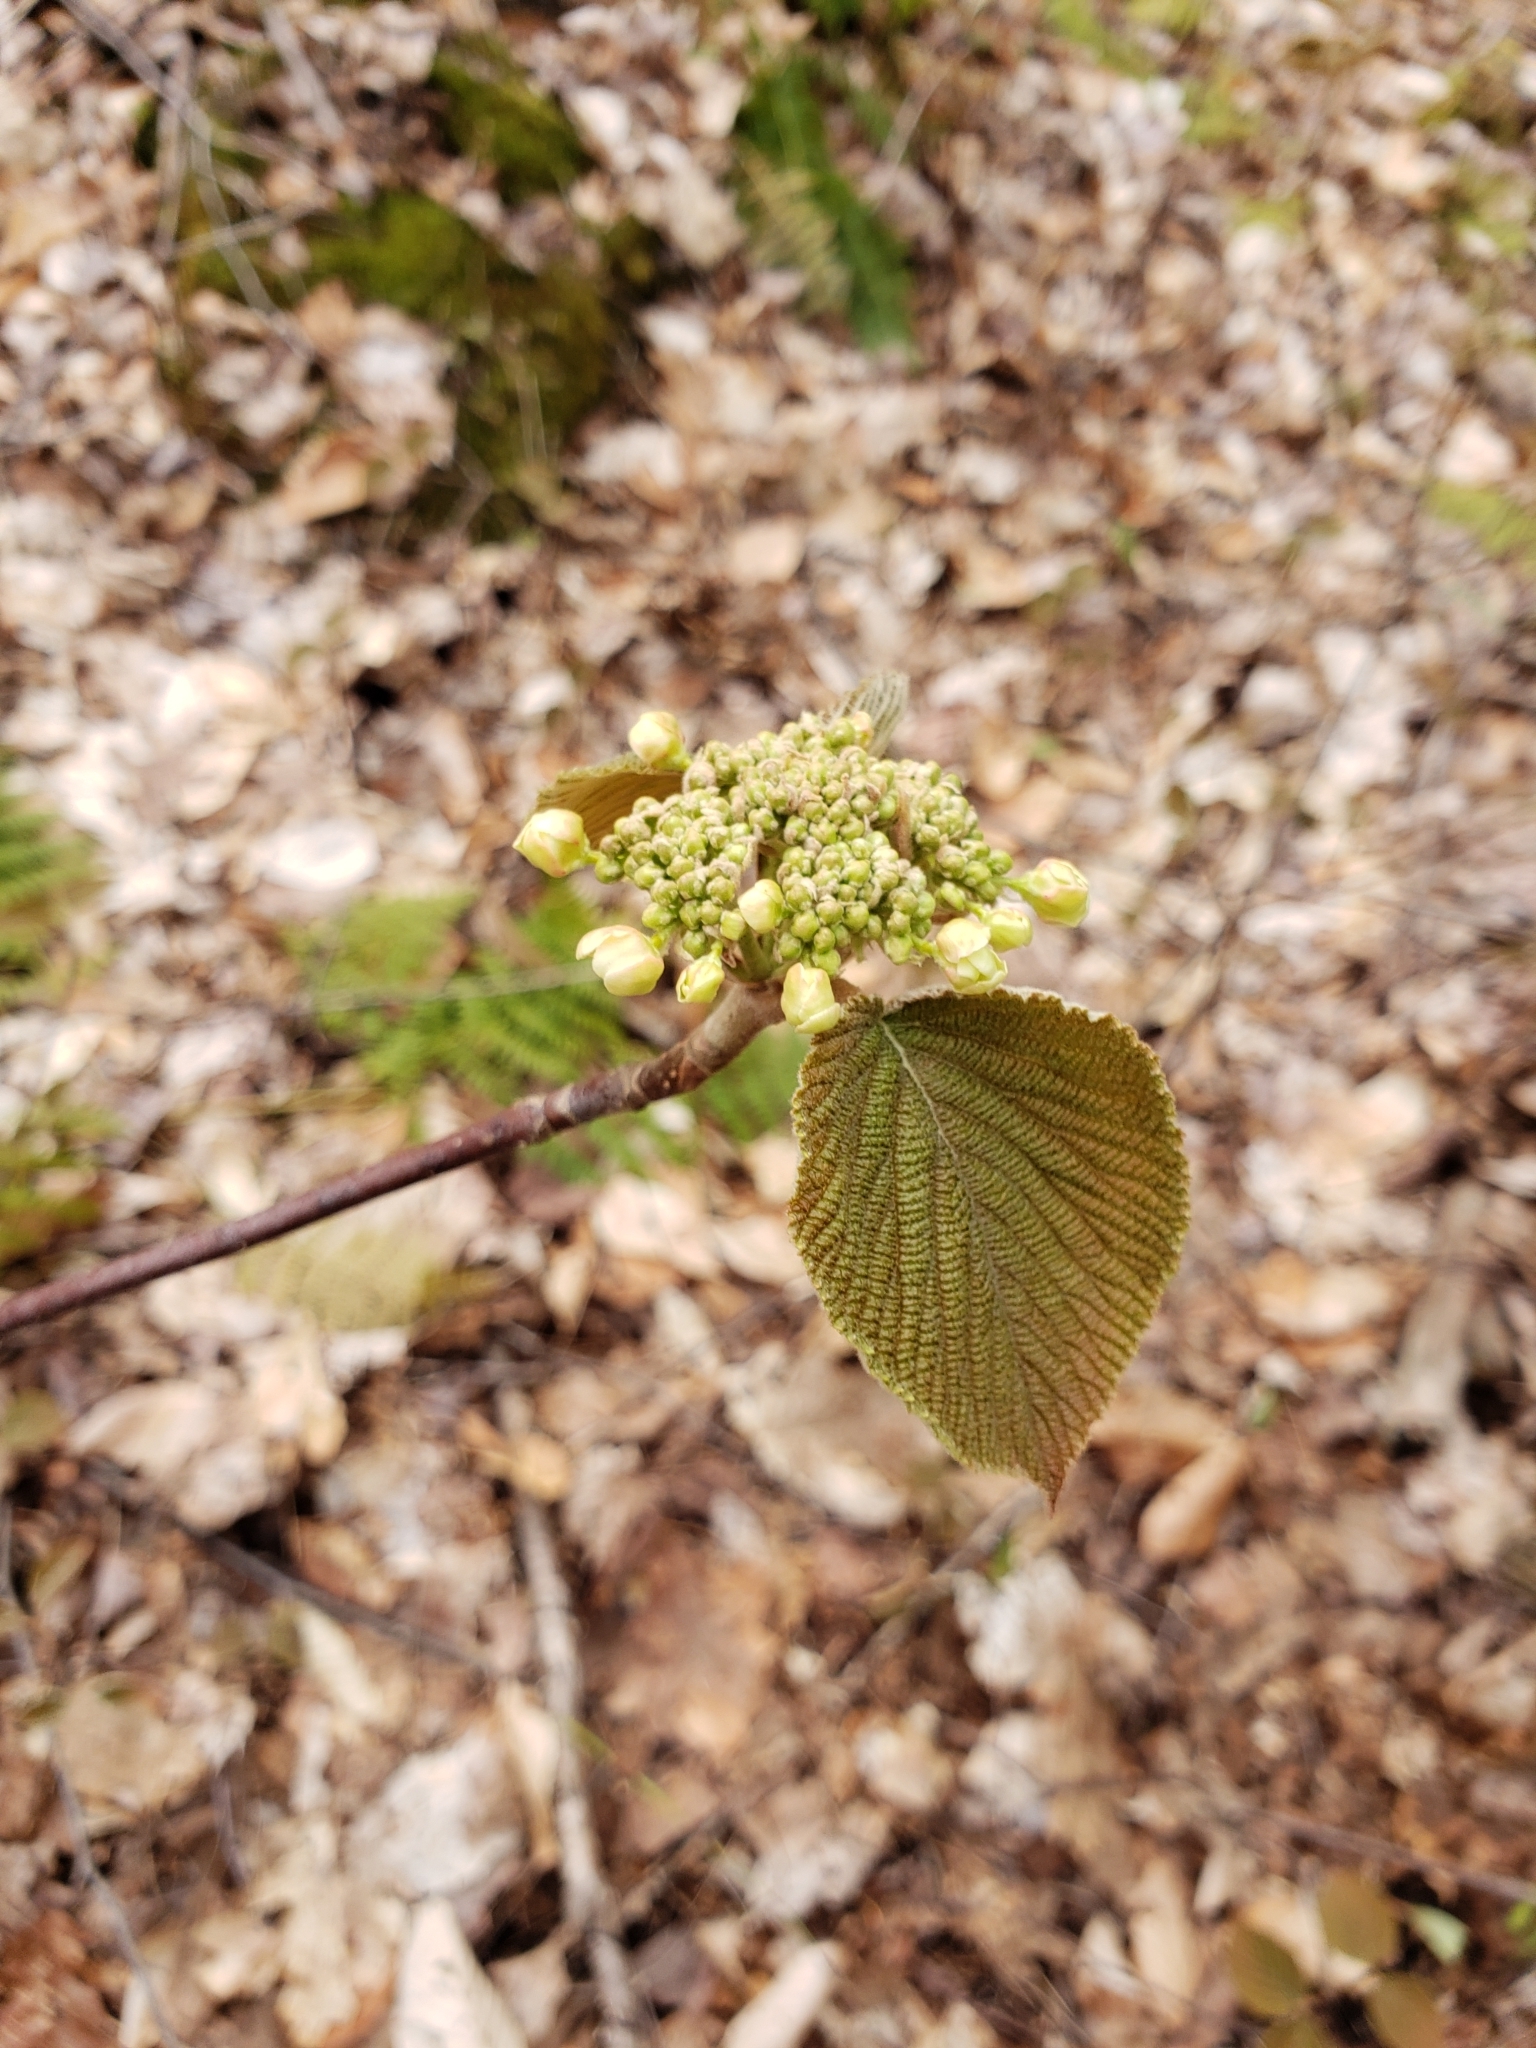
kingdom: Plantae
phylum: Tracheophyta
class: Magnoliopsida
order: Dipsacales
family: Viburnaceae
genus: Viburnum
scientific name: Viburnum lantanoides
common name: Hobblebush
